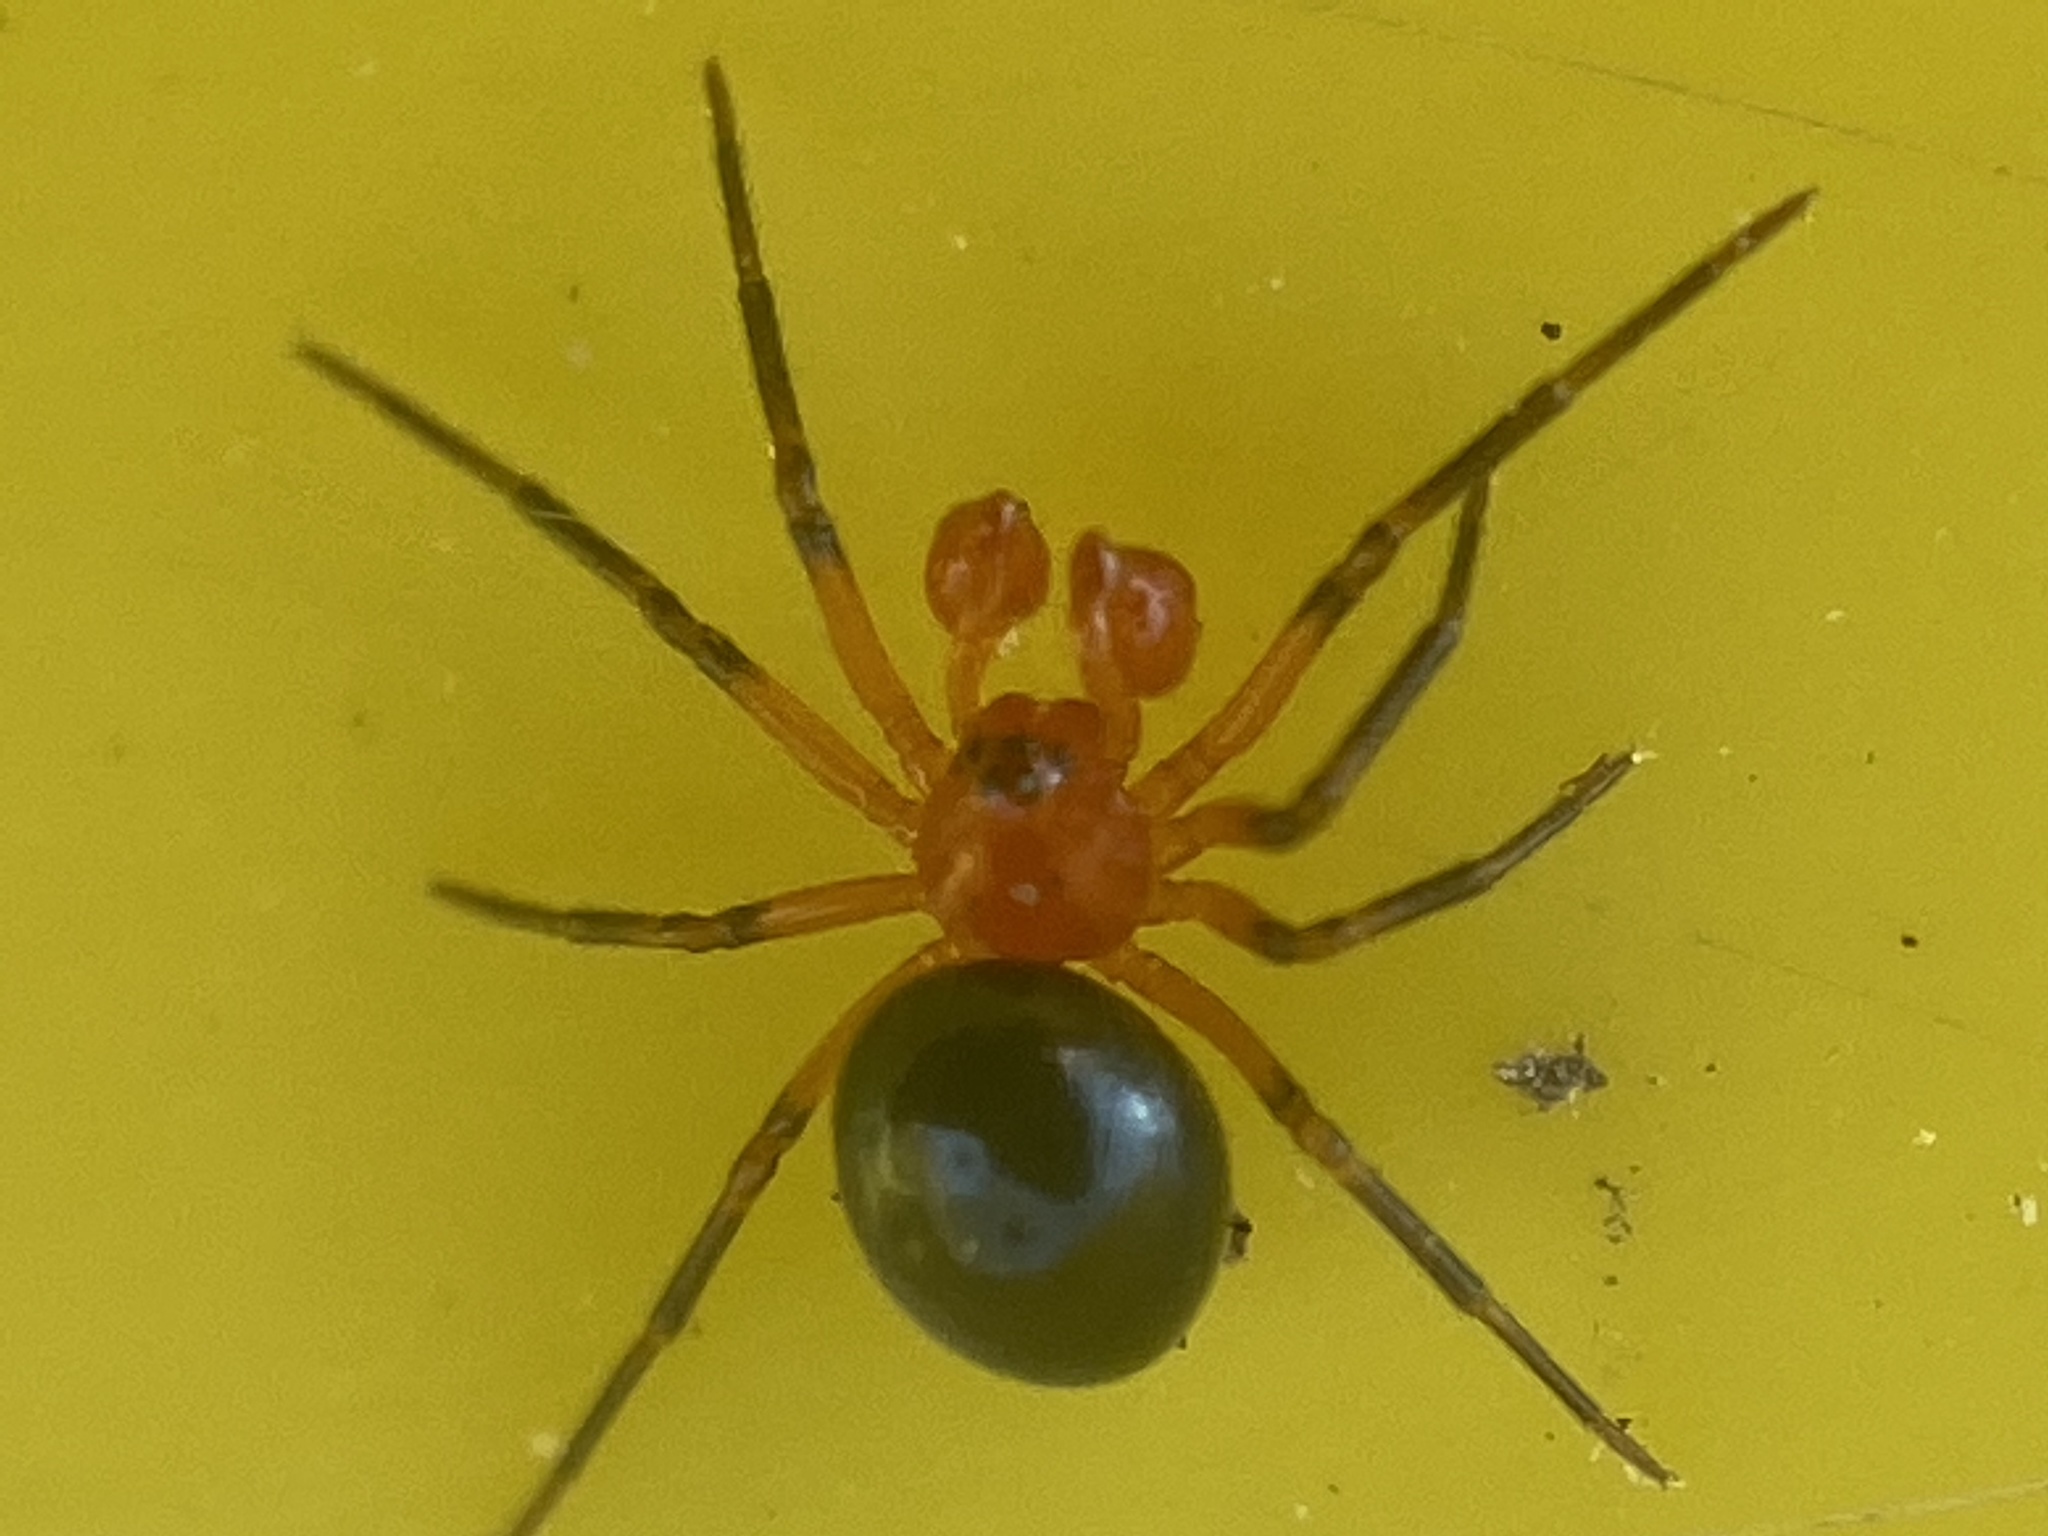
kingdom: Animalia
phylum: Arthropoda
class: Arachnida
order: Araneae
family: Linyphiidae
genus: Hypselistes
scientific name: Hypselistes florens
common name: Peatland sheetweb weaver
